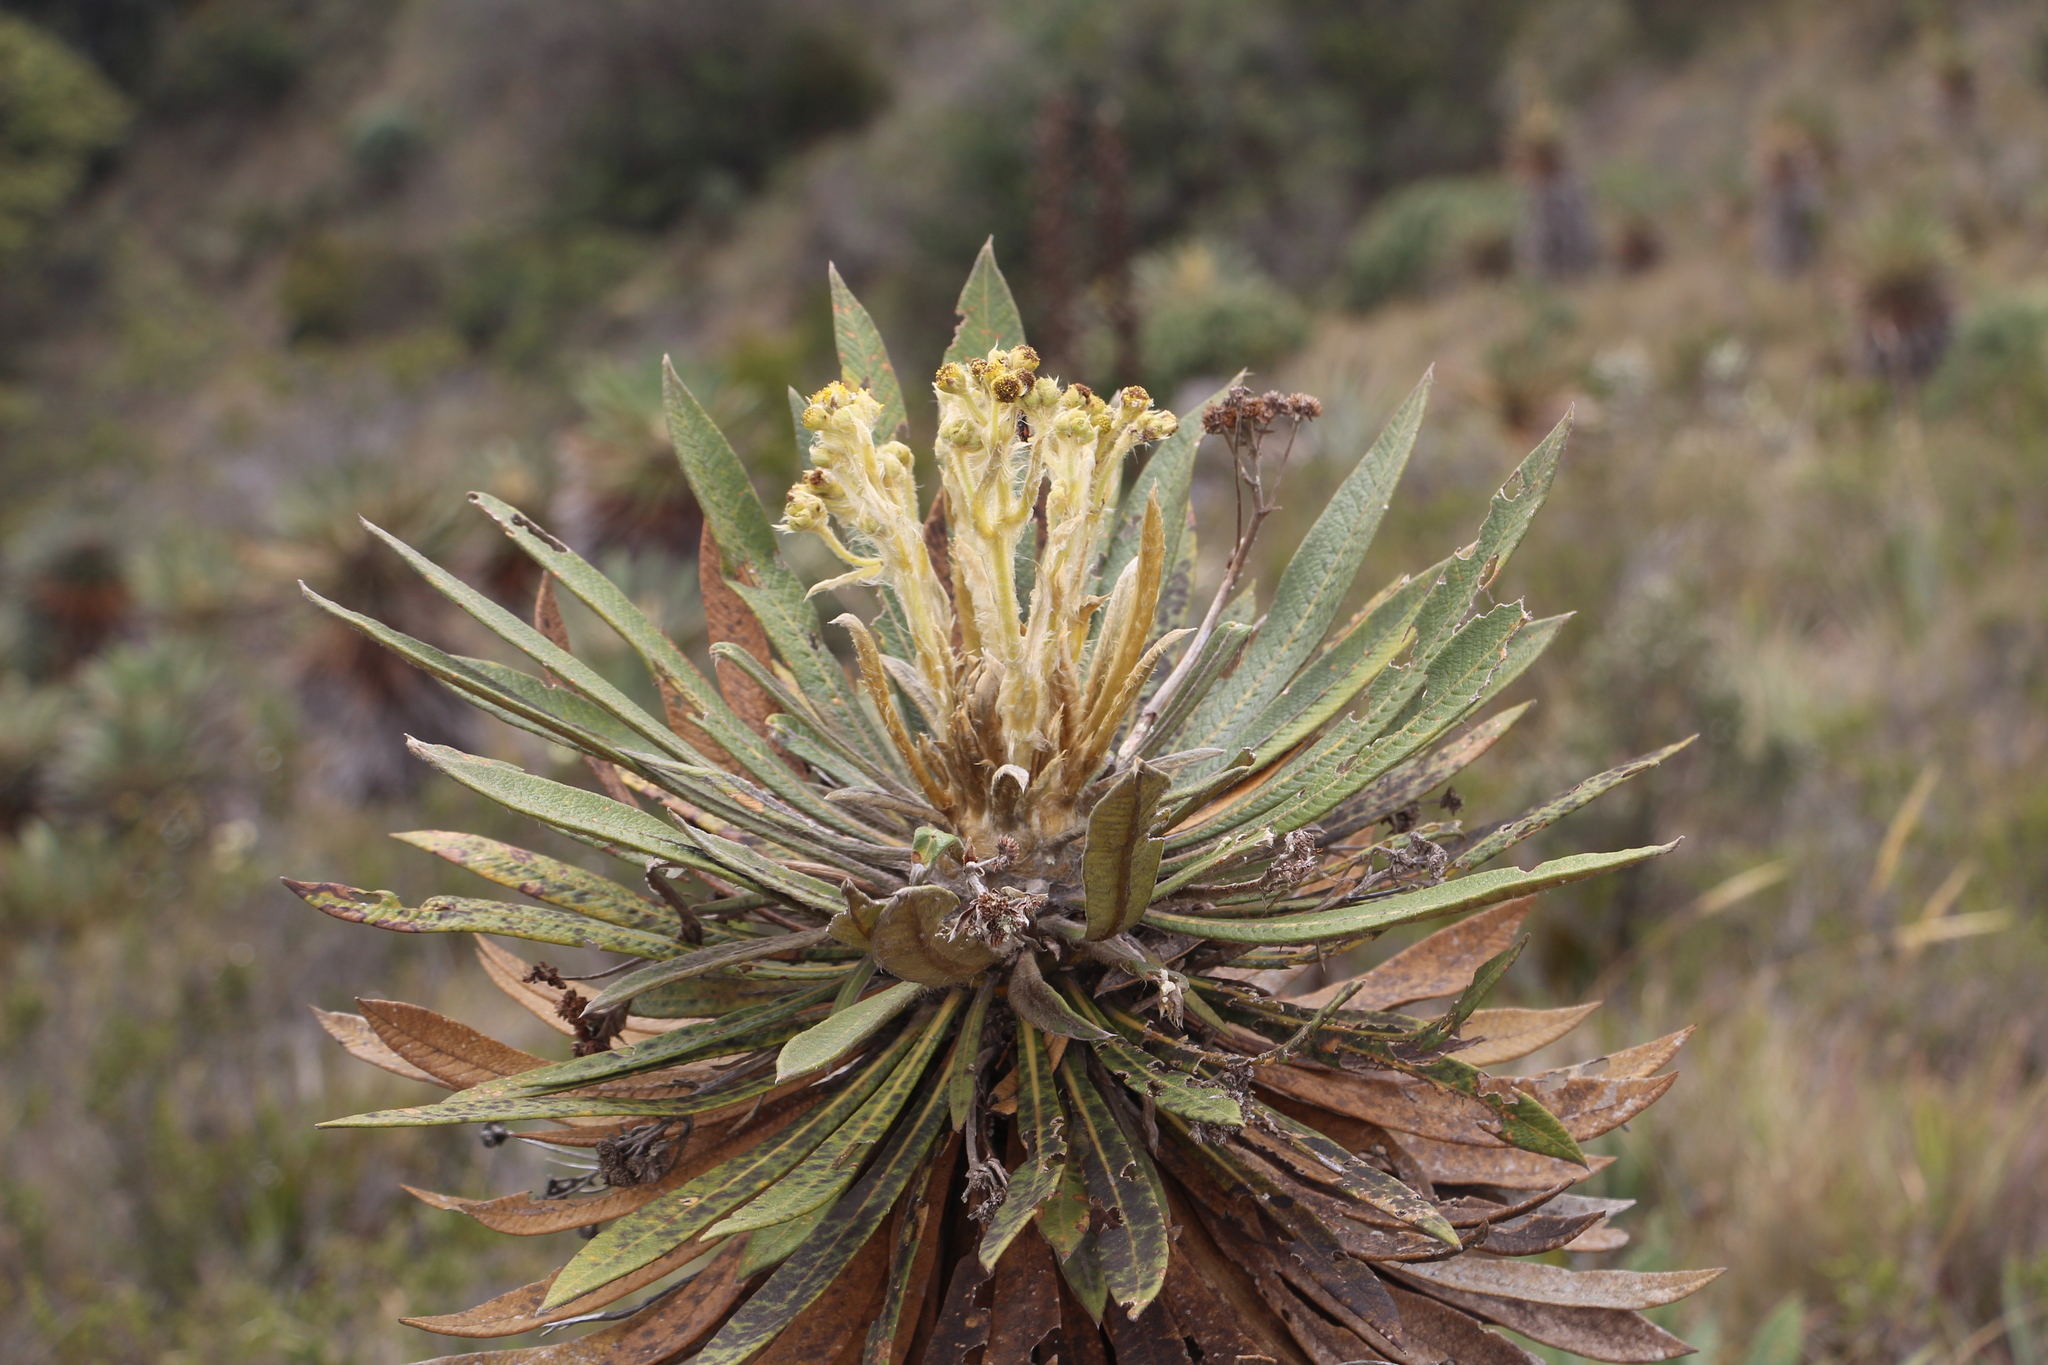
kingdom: Plantae
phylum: Tracheophyta
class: Magnoliopsida
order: Asterales
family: Asteraceae
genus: Espeletia
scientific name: Espeletia guacharaca
